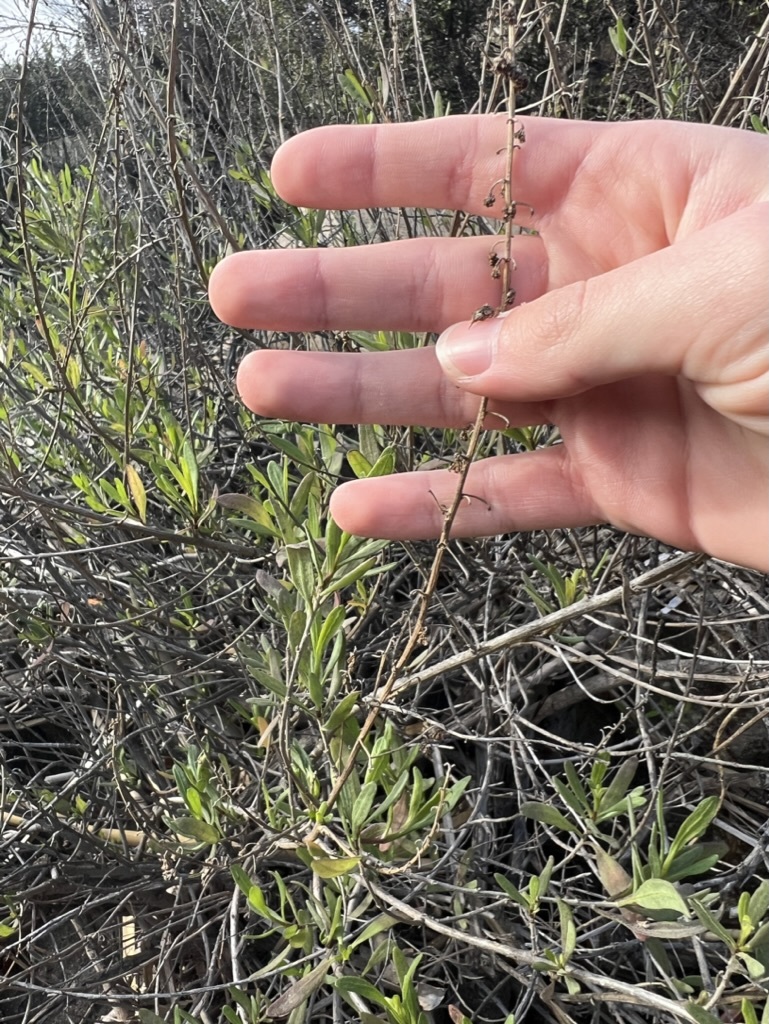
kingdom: Plantae
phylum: Tracheophyta
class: Magnoliopsida
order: Asterales
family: Asteraceae
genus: Iva
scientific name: Iva hayesiana
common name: San diego marsh-elder
